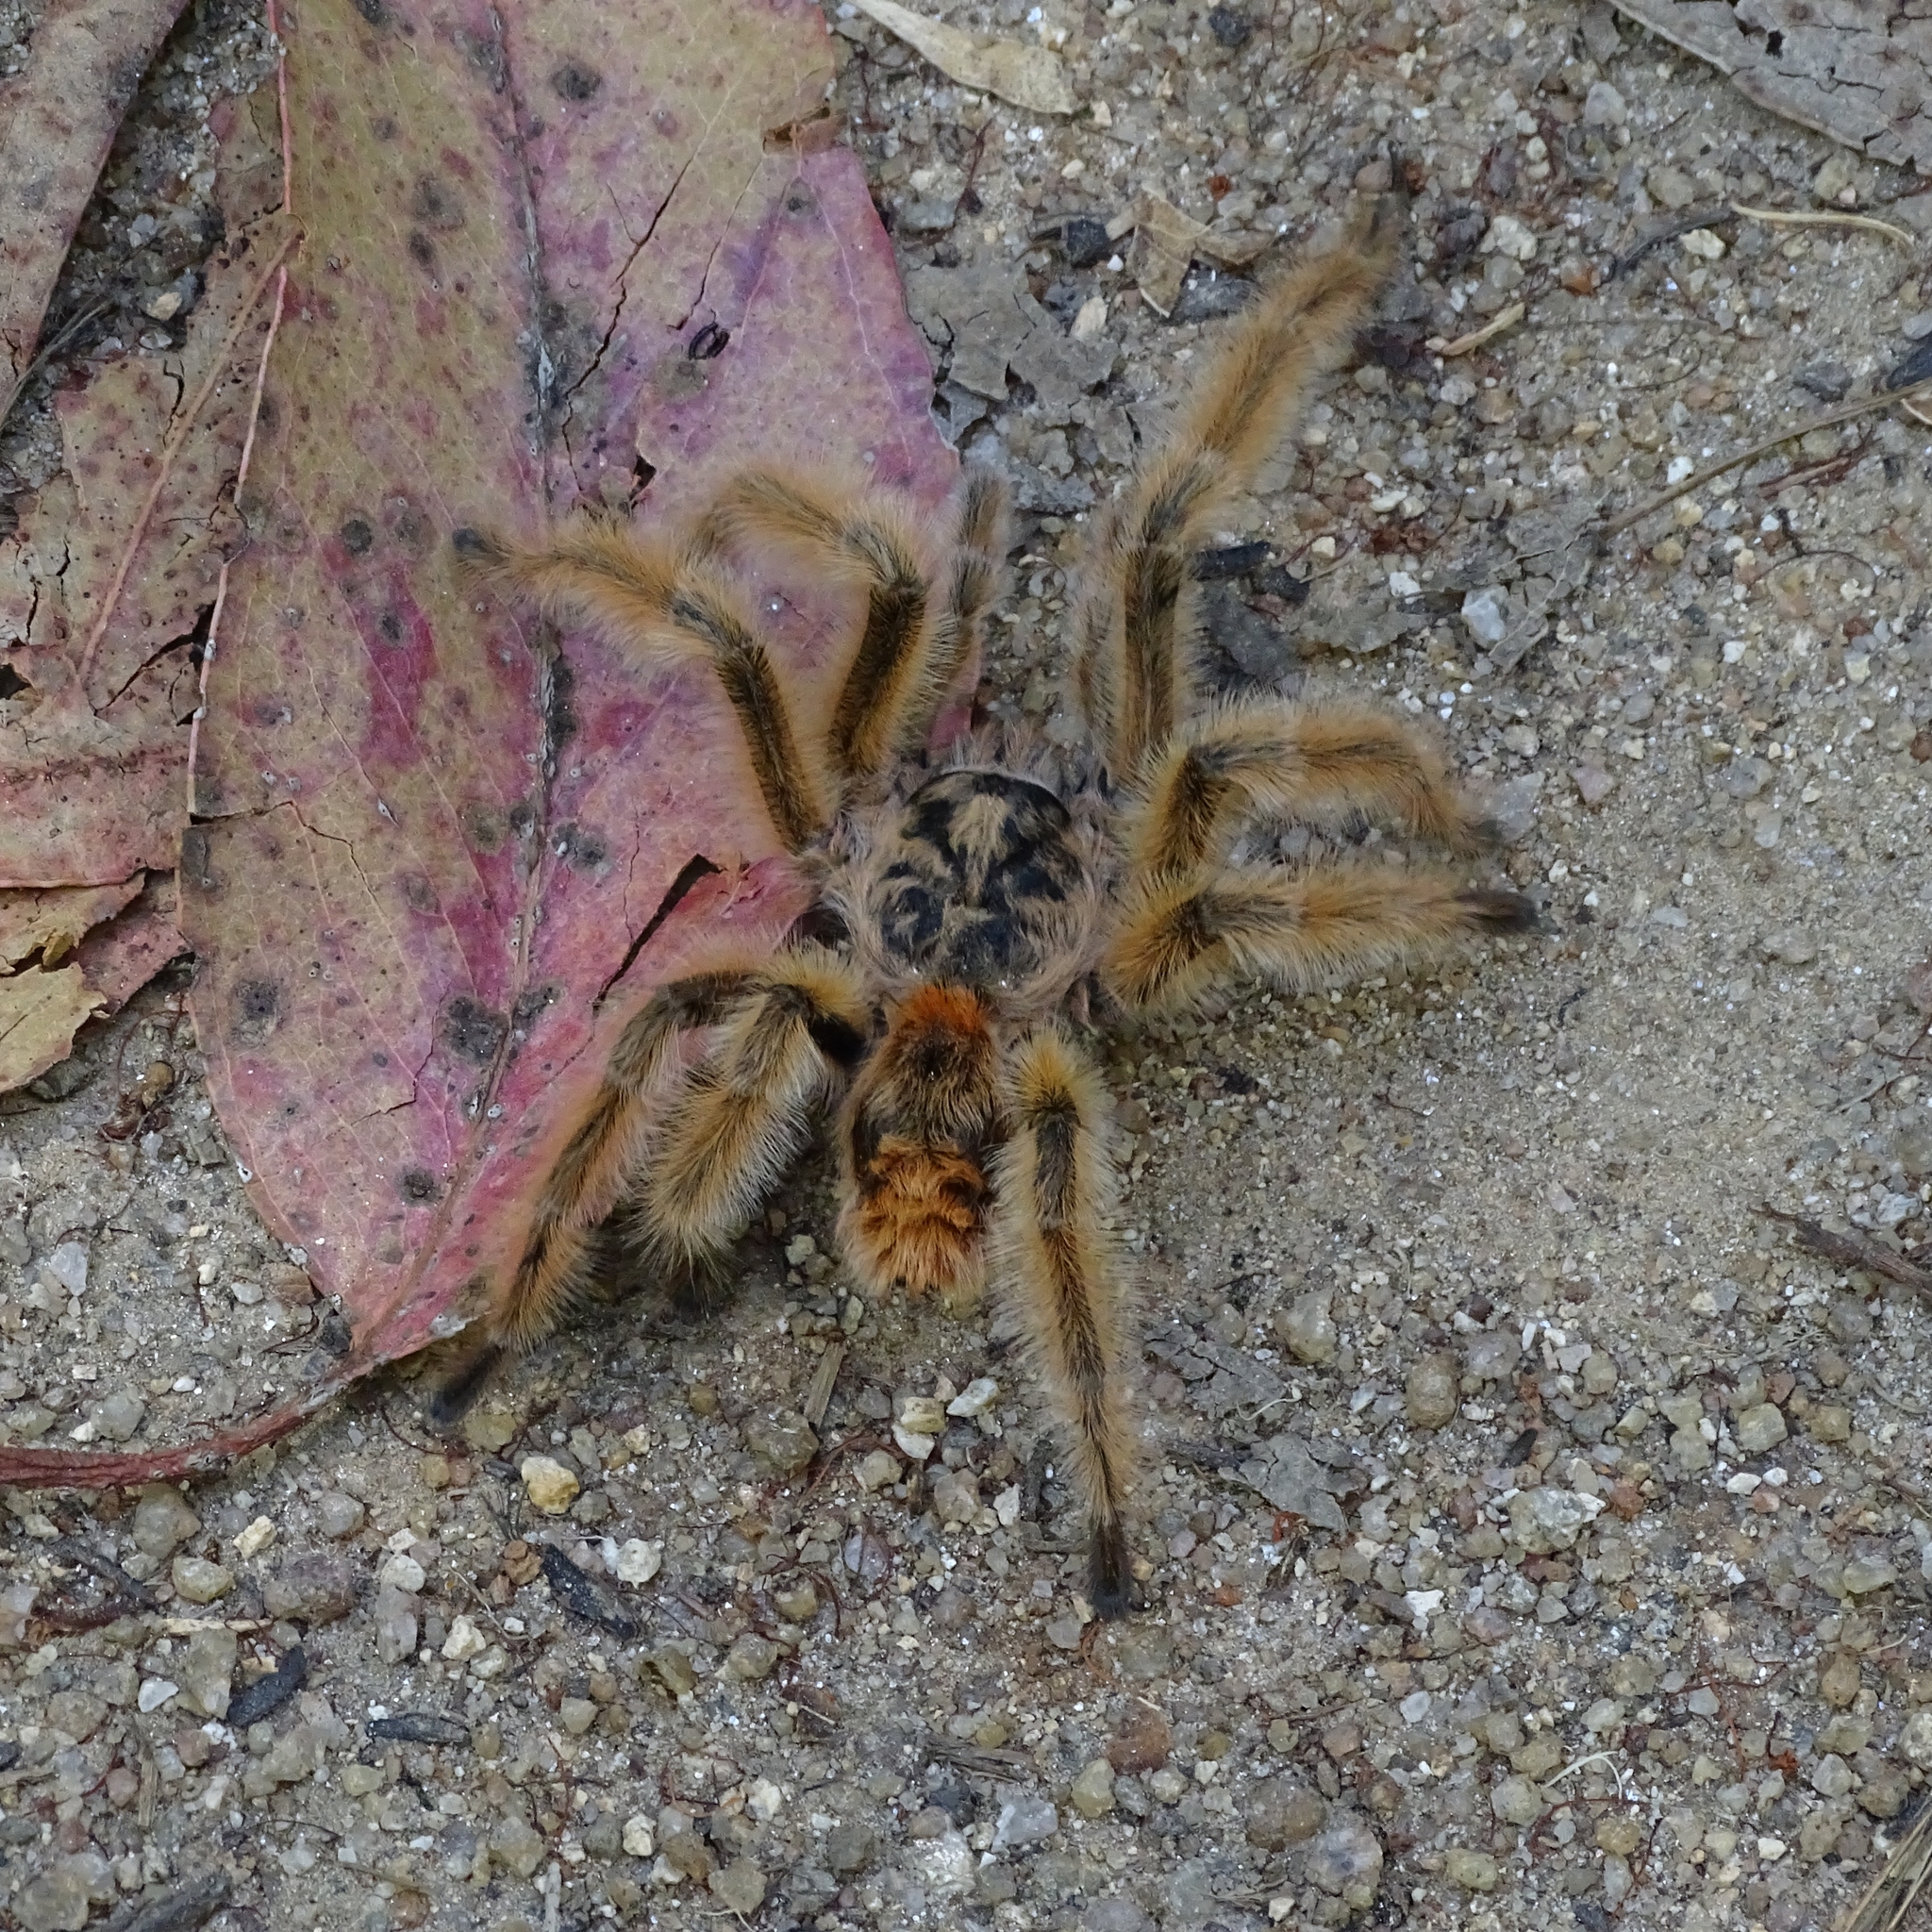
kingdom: Animalia
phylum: Arthropoda
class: Arachnida
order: Araneae
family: Theraphosidae
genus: Phrixotrichus
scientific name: Phrixotrichus vulpinus
